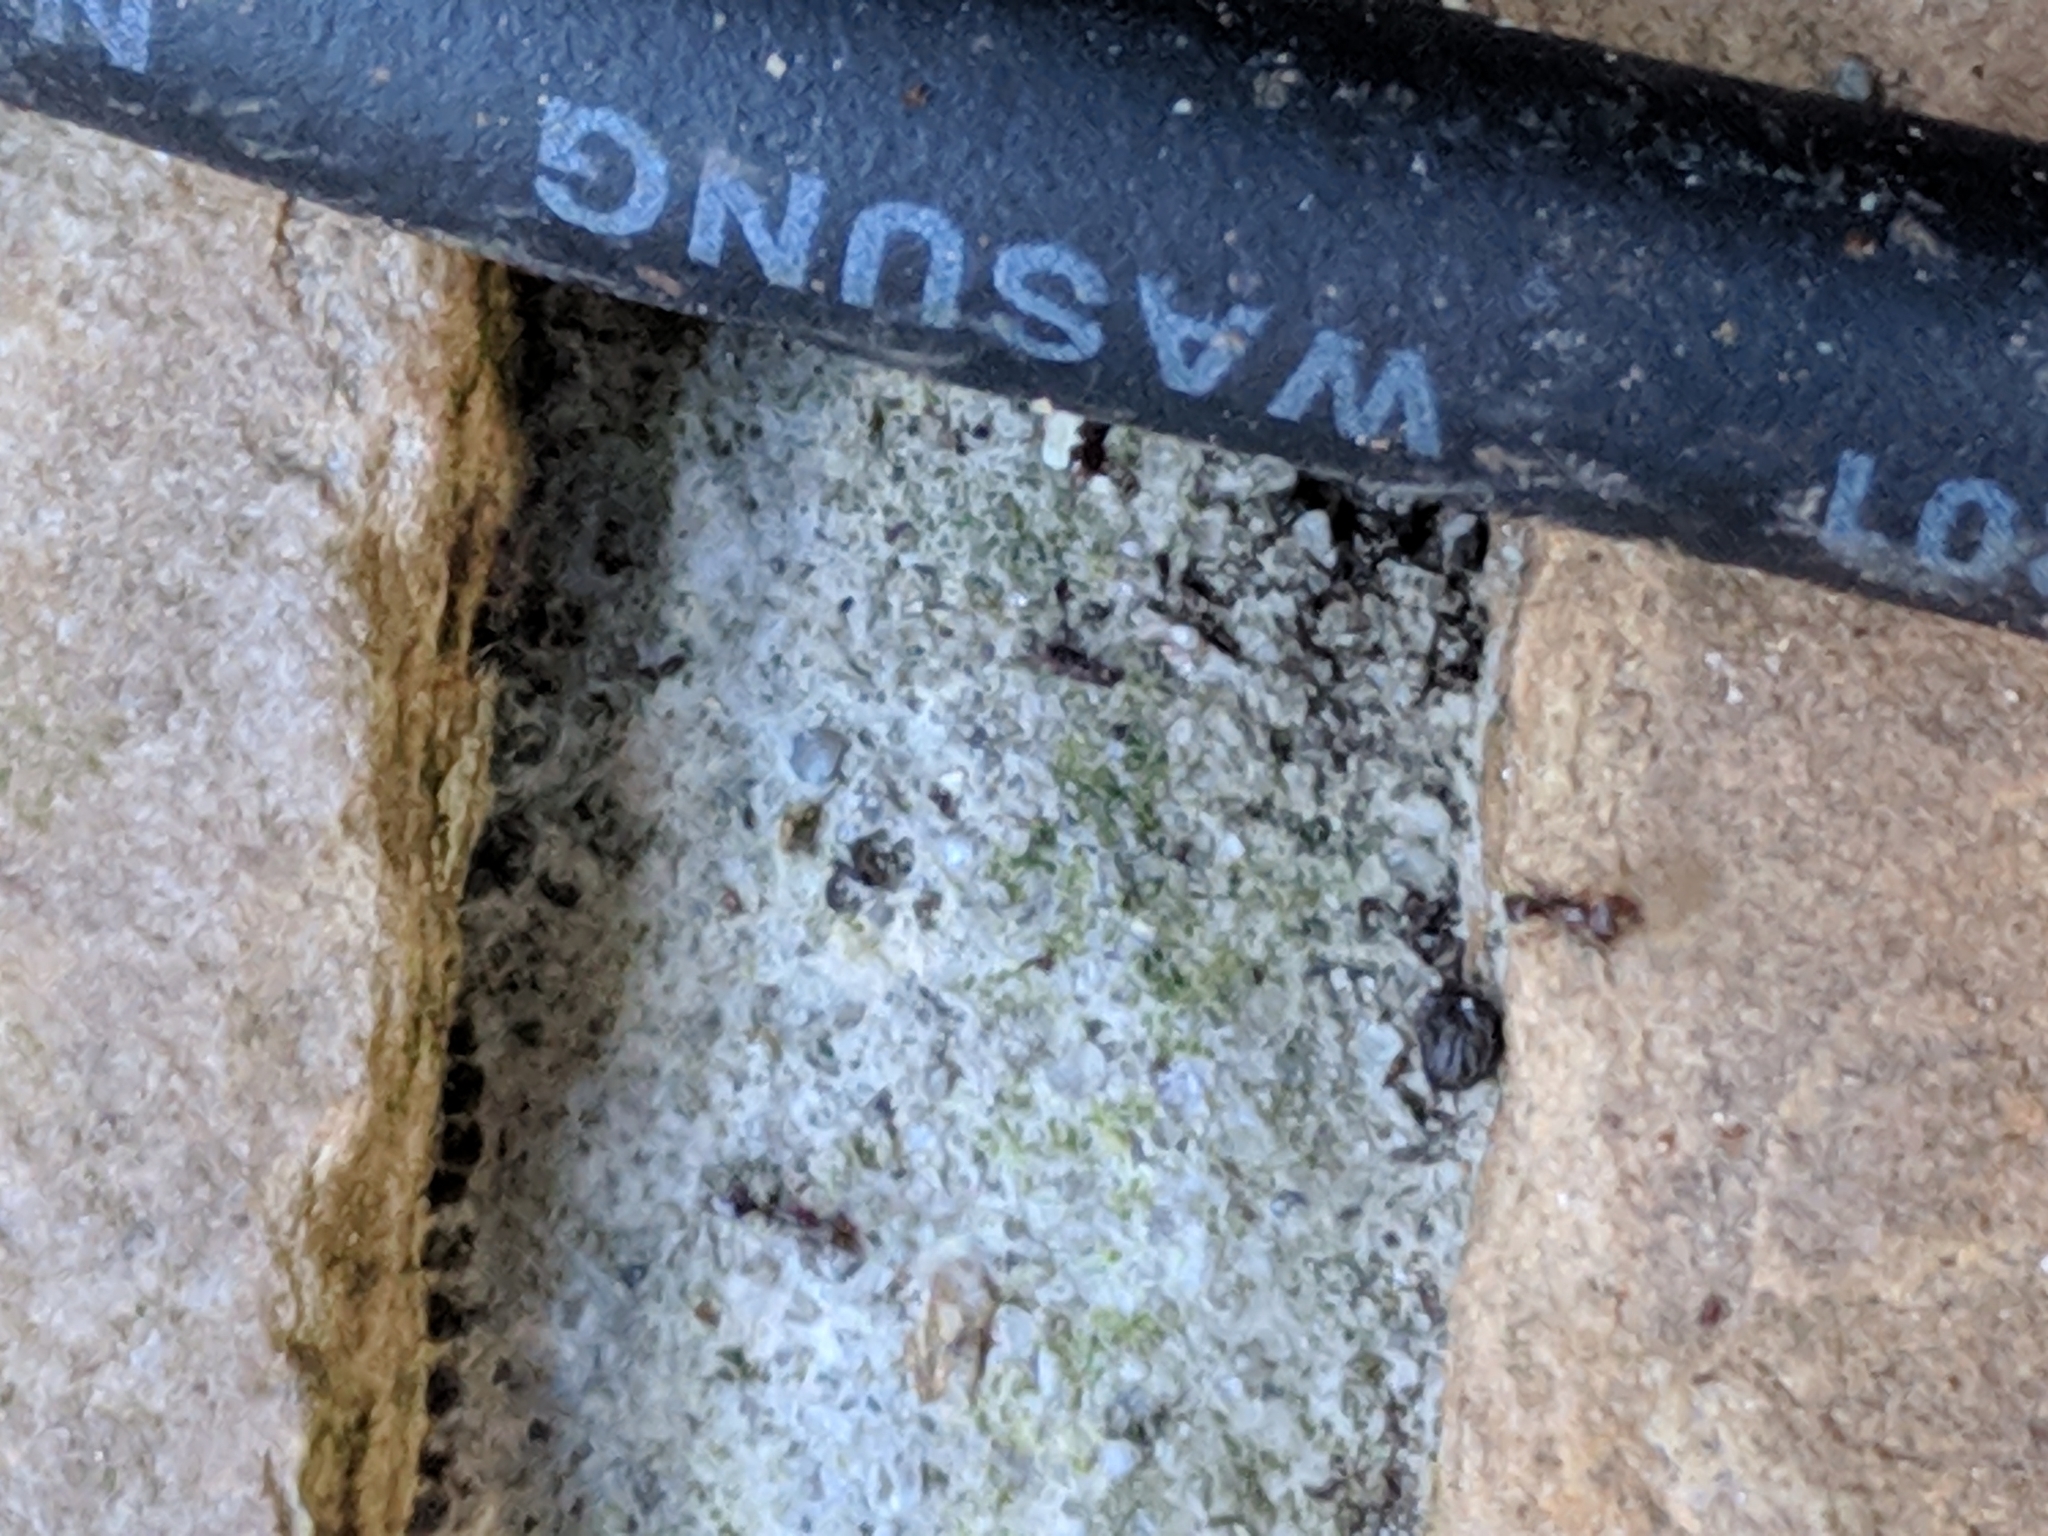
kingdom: Animalia
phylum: Arthropoda
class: Insecta
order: Hymenoptera
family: Formicidae
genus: Linepithema
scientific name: Linepithema humile
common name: Argentine ant
